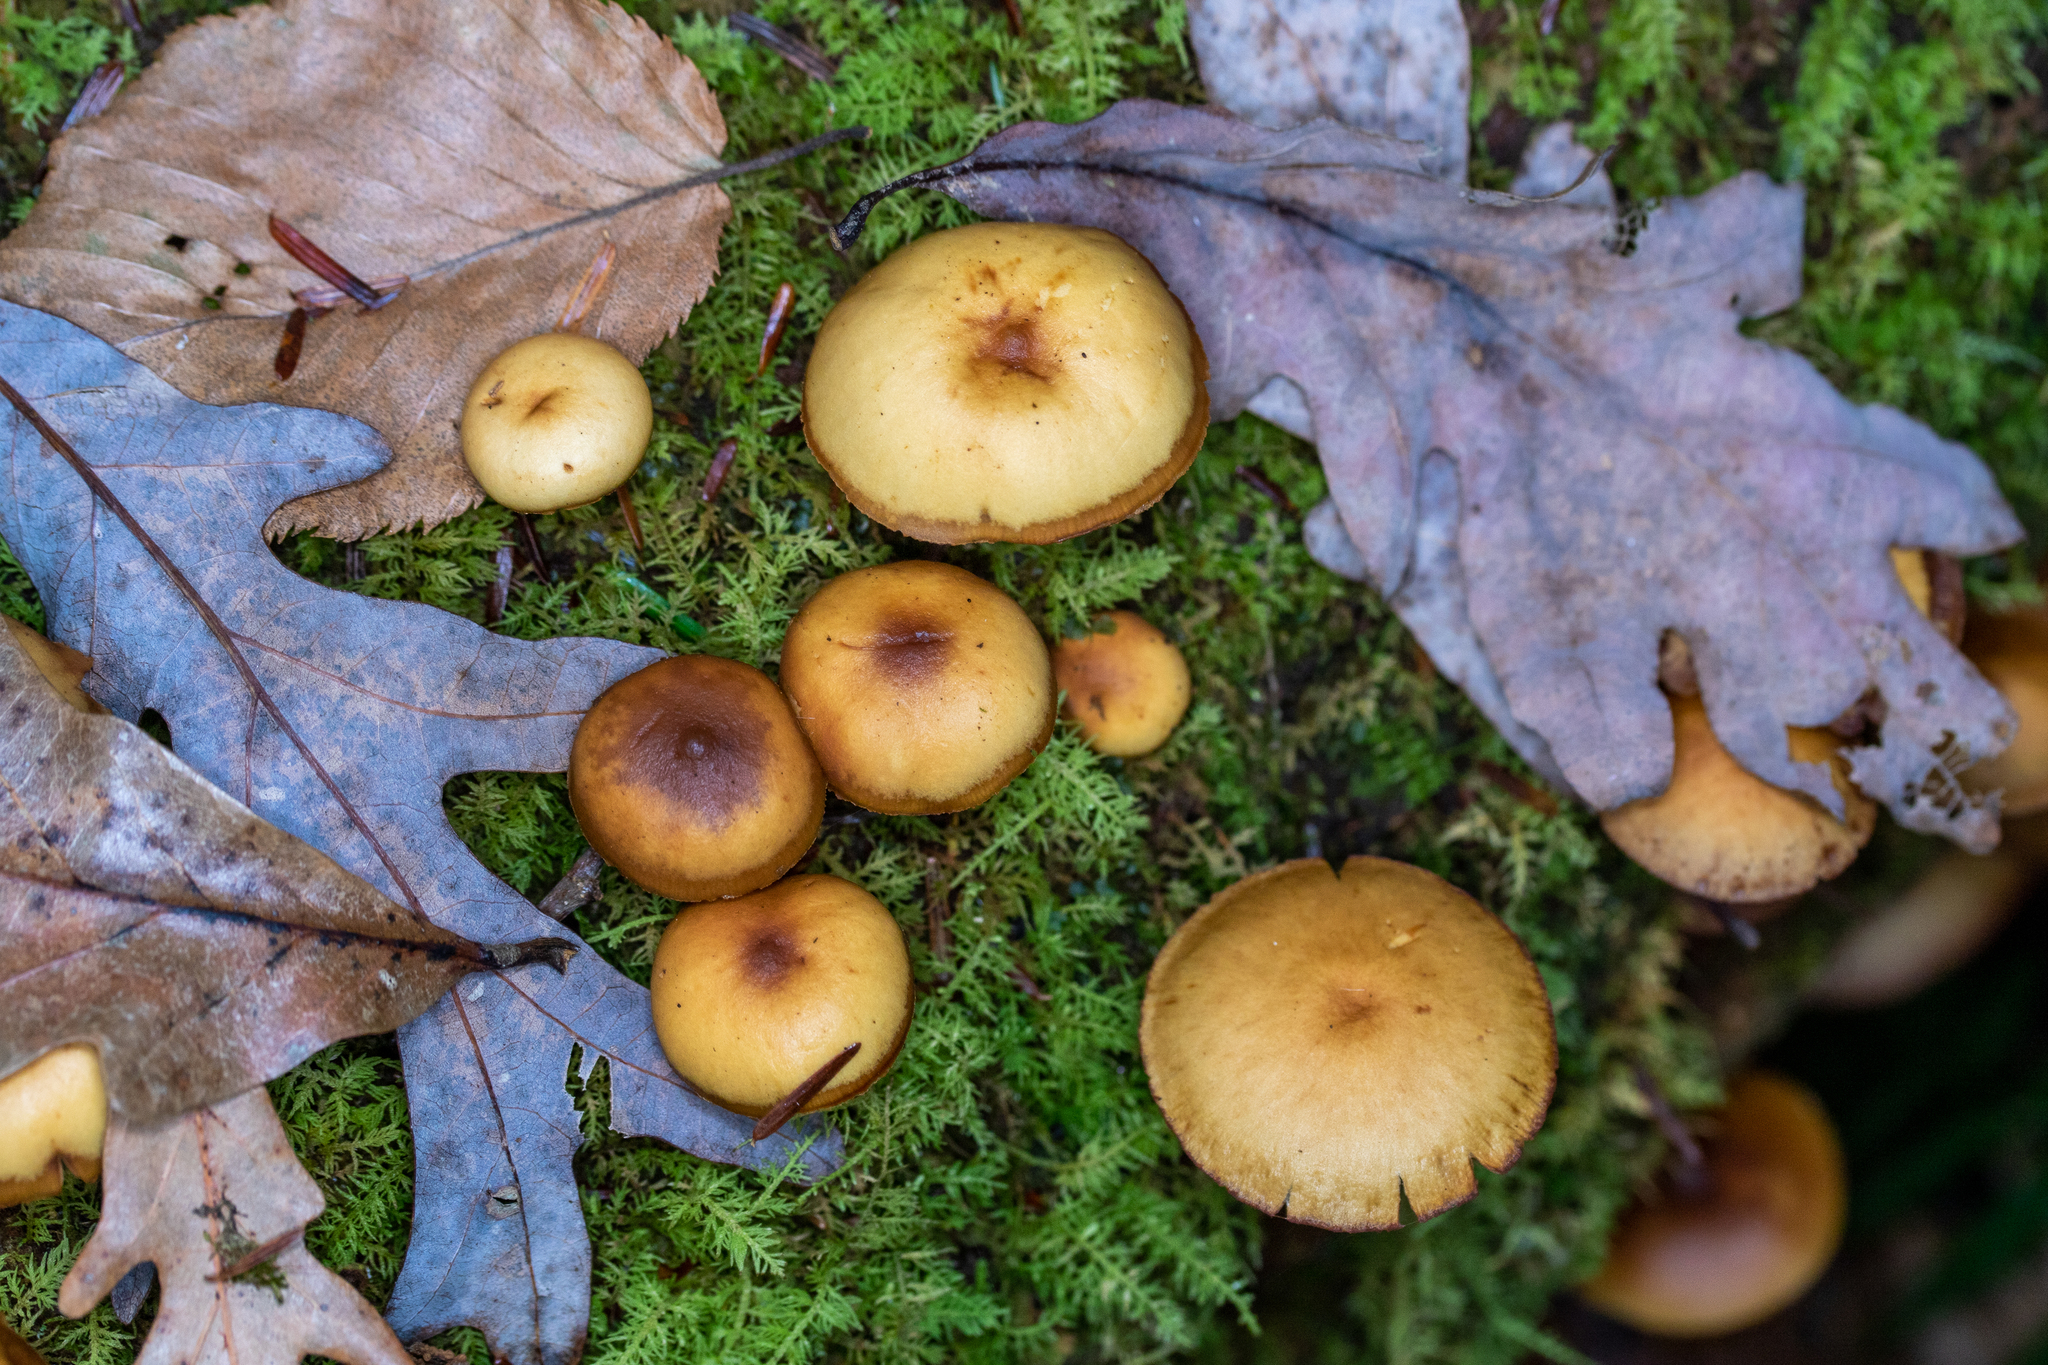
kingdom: Fungi
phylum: Basidiomycota
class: Agaricomycetes
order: Agaricales
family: Hymenogastraceae
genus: Galerina
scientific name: Galerina marginata
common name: Funeral bell
